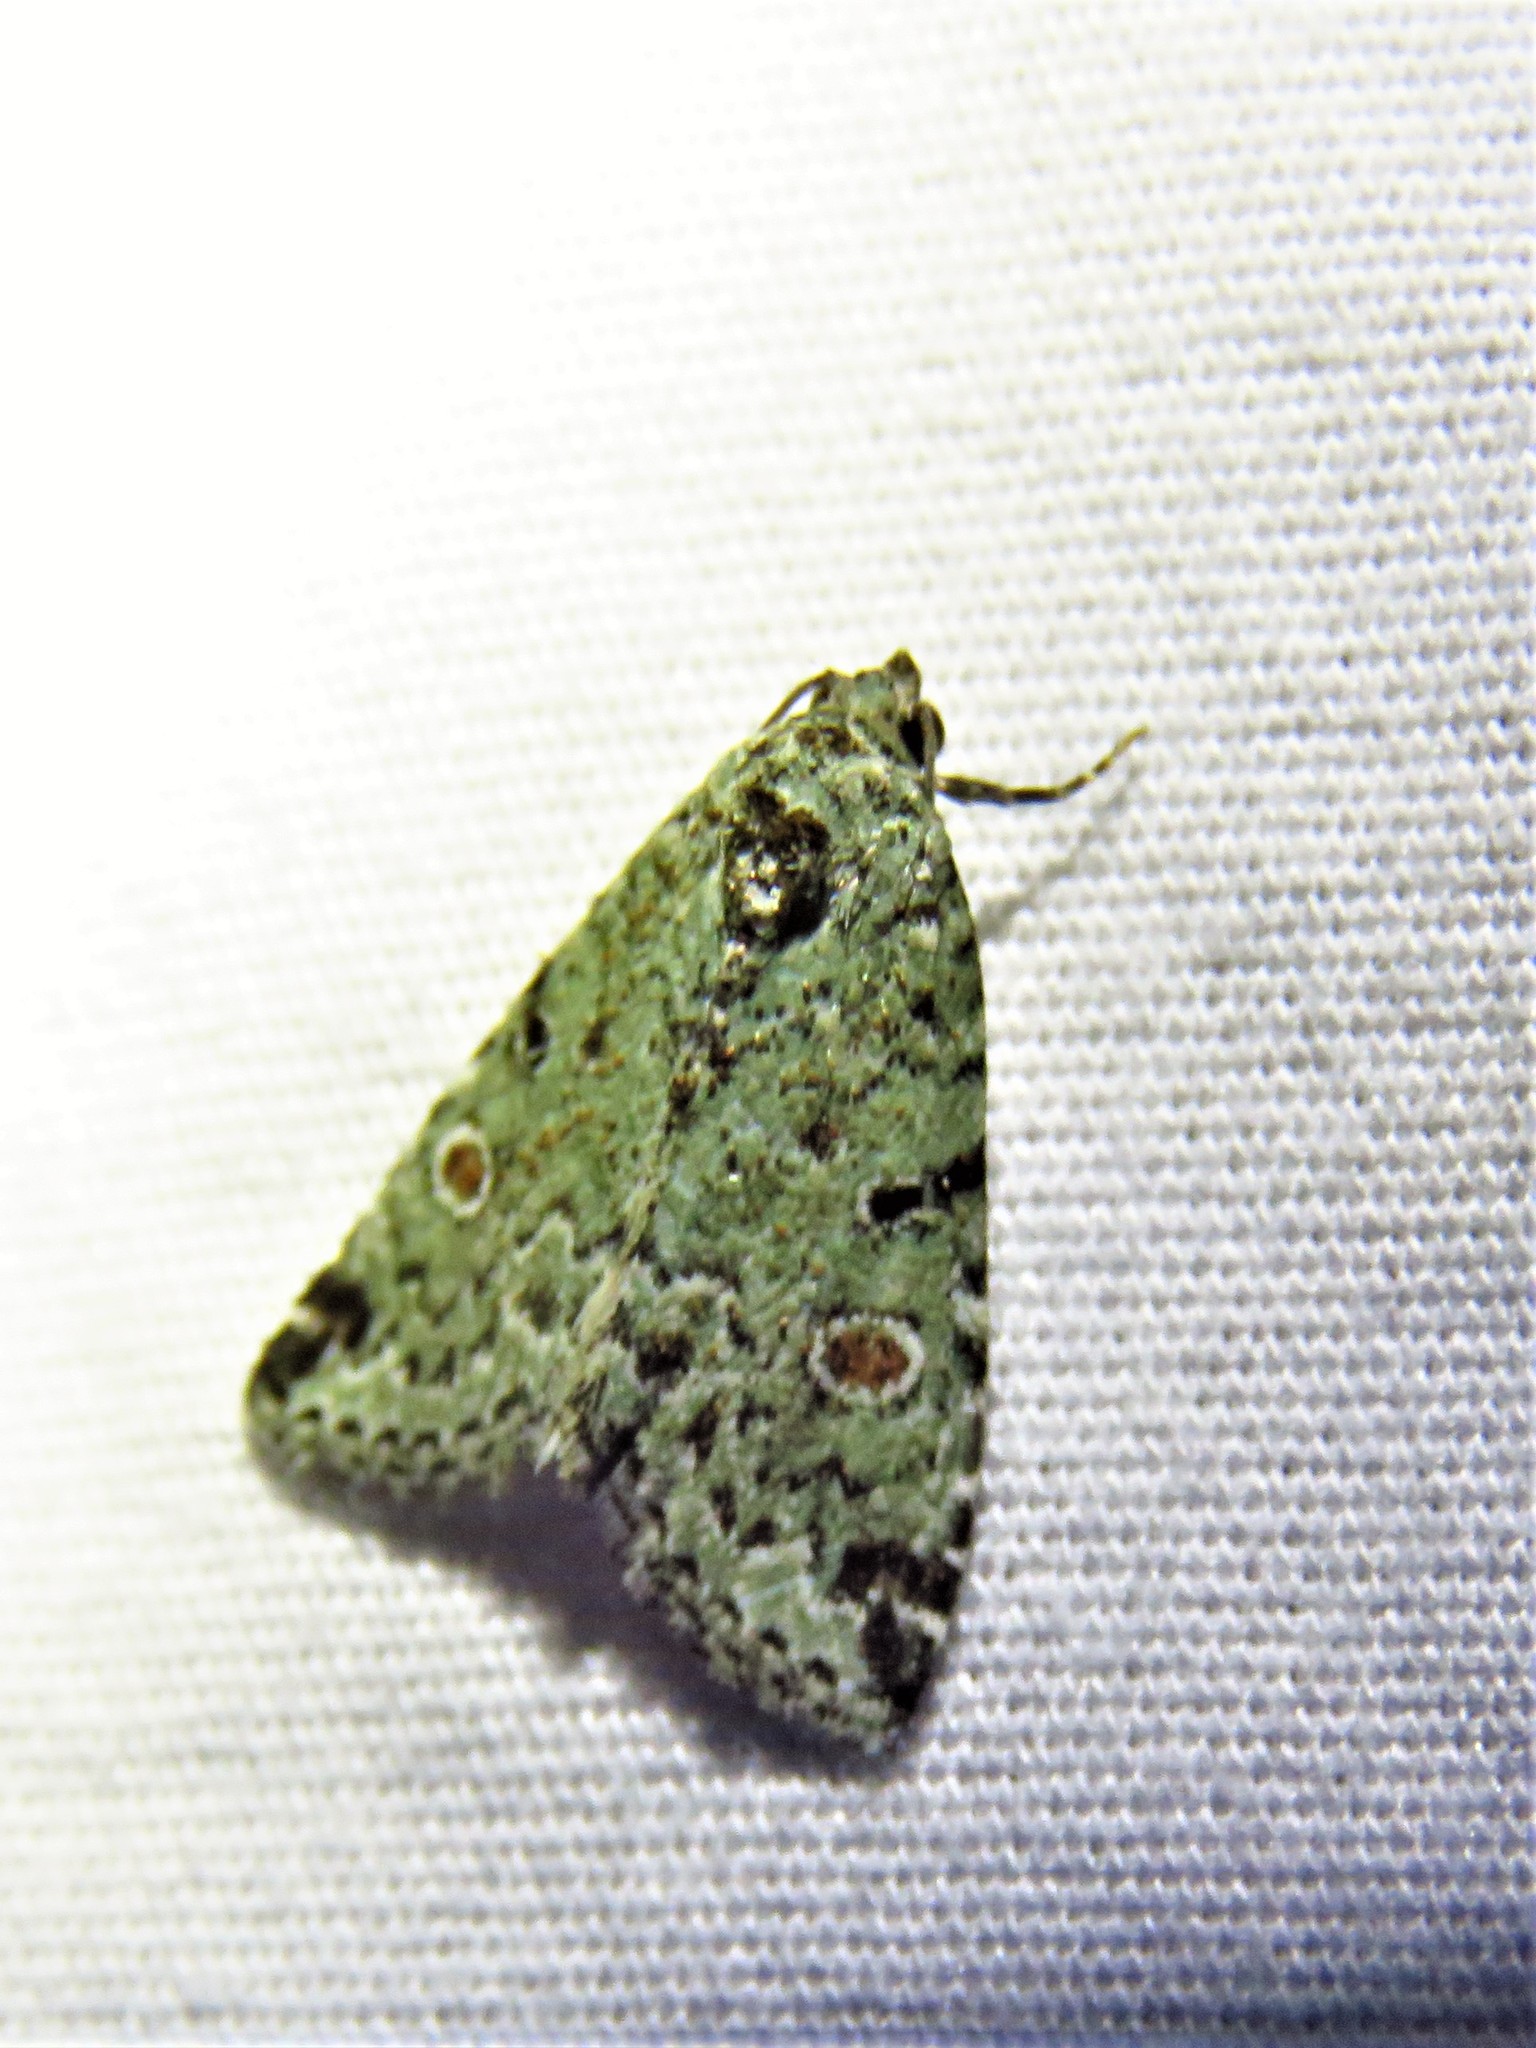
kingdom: Animalia
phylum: Arthropoda
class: Insecta
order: Lepidoptera
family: Noctuidae
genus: Maliattha
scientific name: Maliattha concinnimacula
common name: Red-spotted glyph
